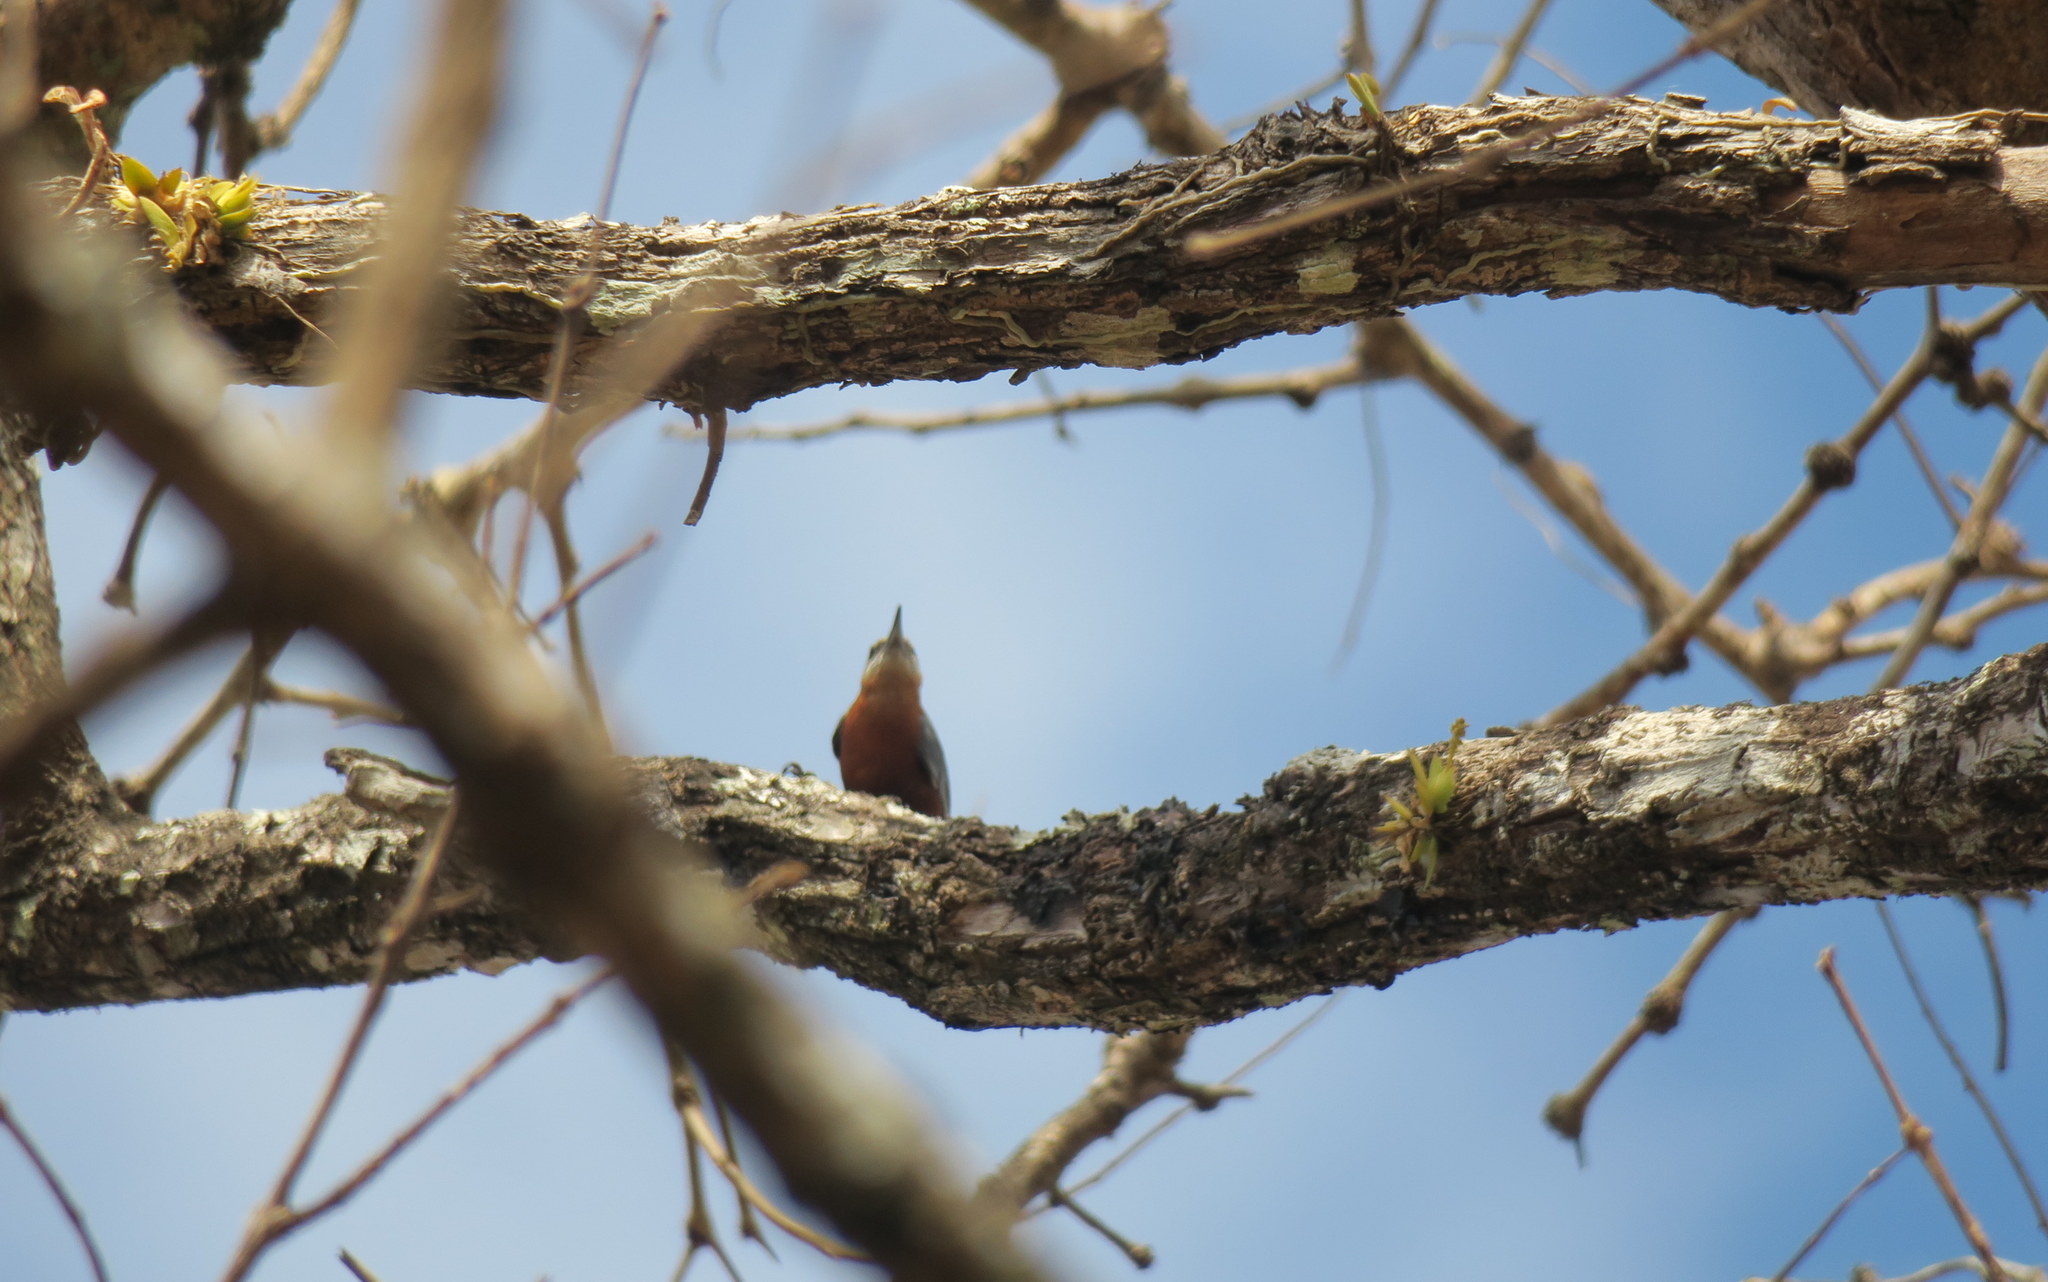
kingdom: Animalia
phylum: Chordata
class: Aves
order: Passeriformes
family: Sittidae
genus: Sitta
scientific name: Sitta neglecta
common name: Burmese nuthatch
